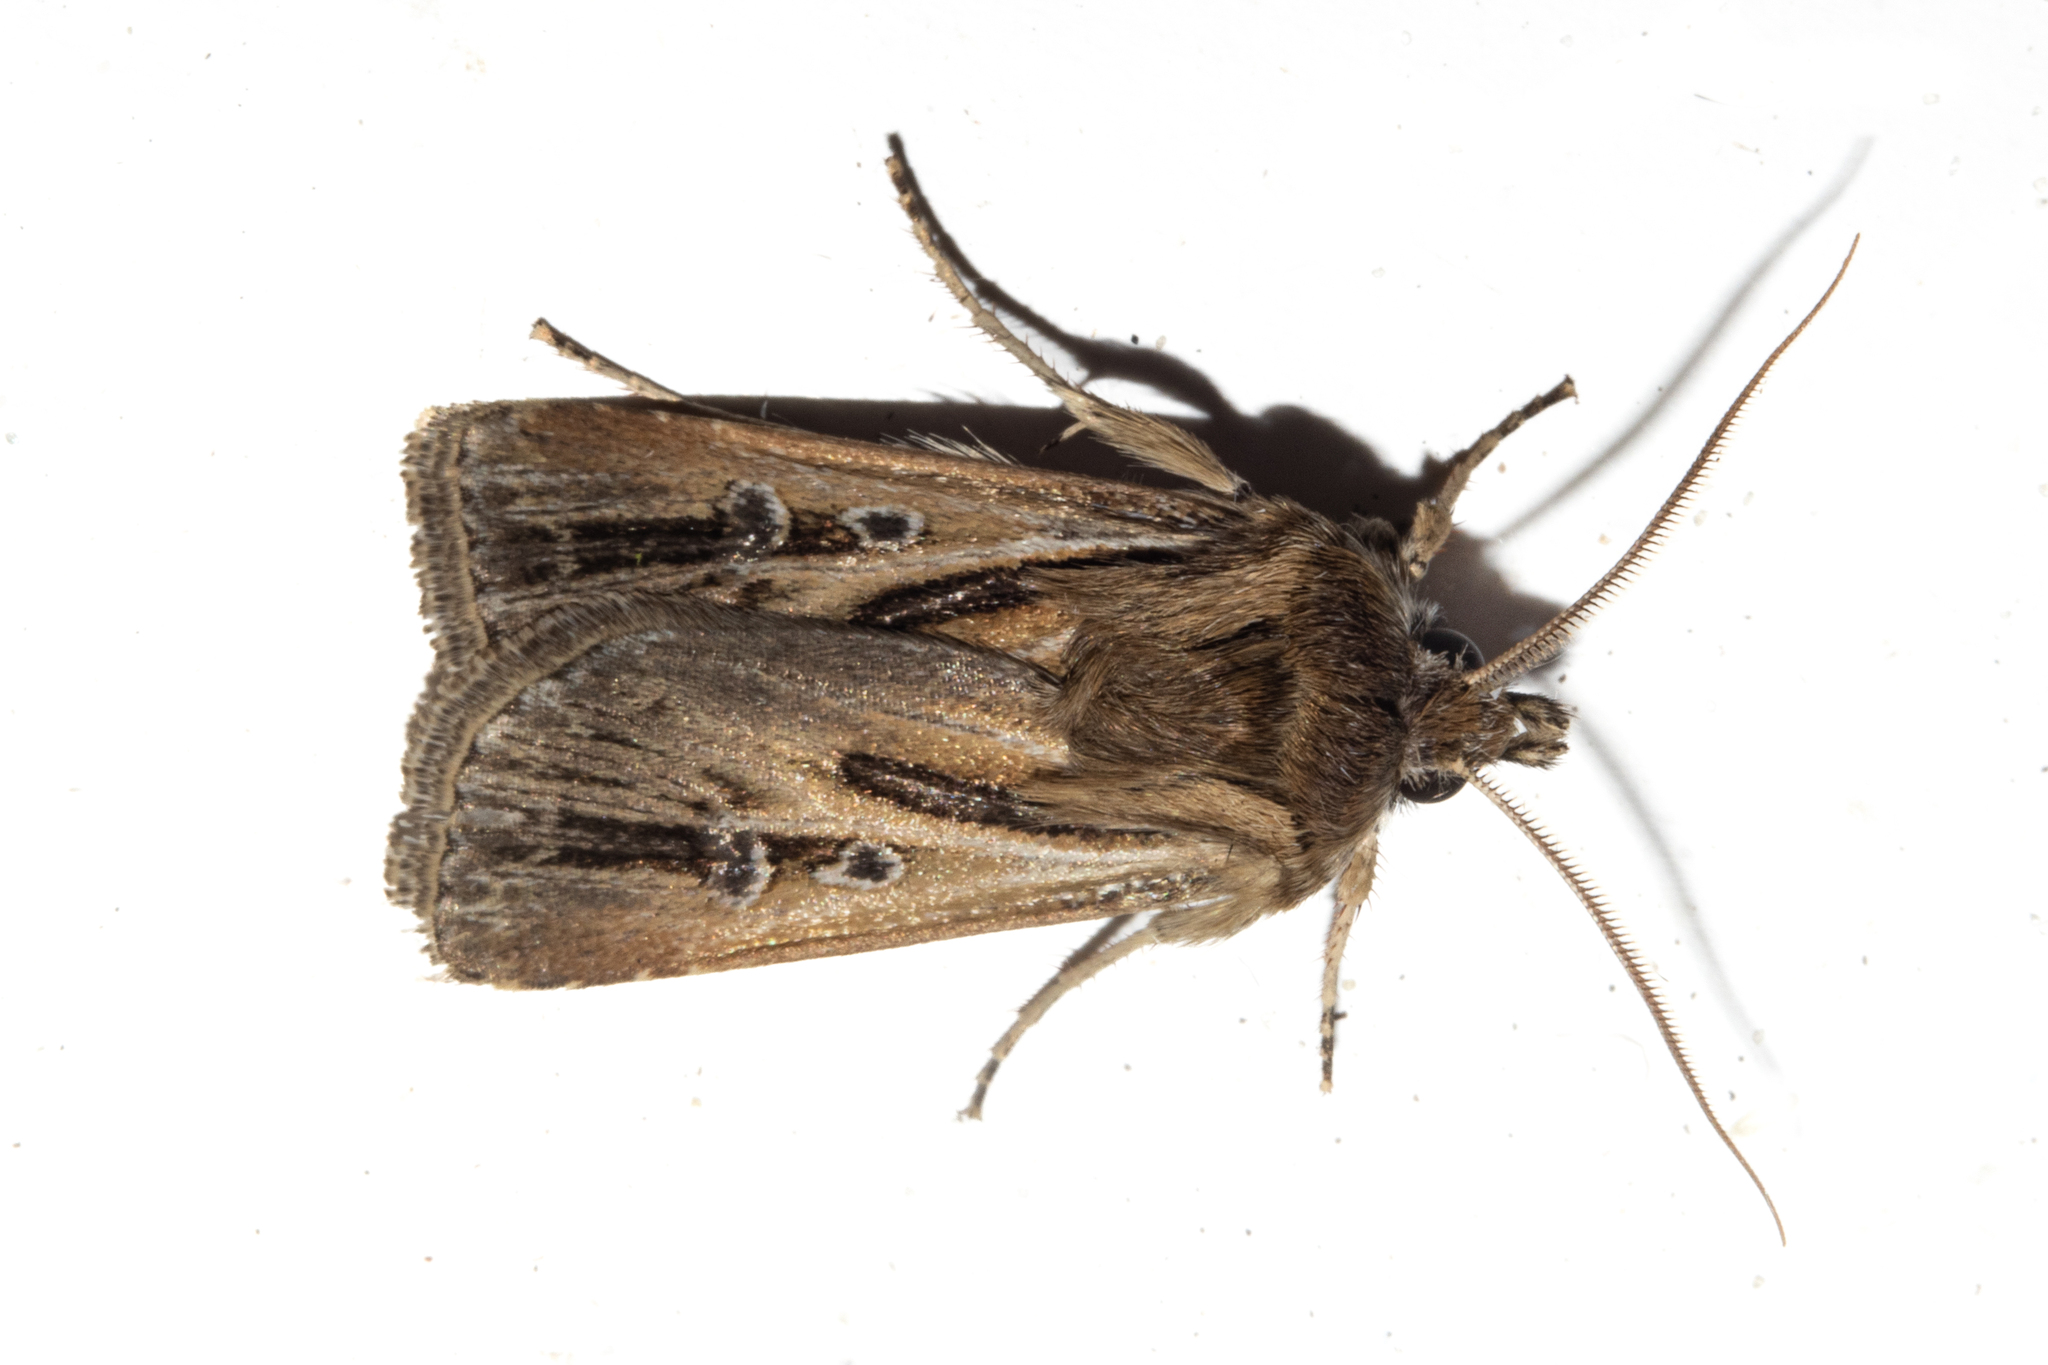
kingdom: Animalia
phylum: Arthropoda
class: Insecta
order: Lepidoptera
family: Noctuidae
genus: Agrotis
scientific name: Agrotis innominata
